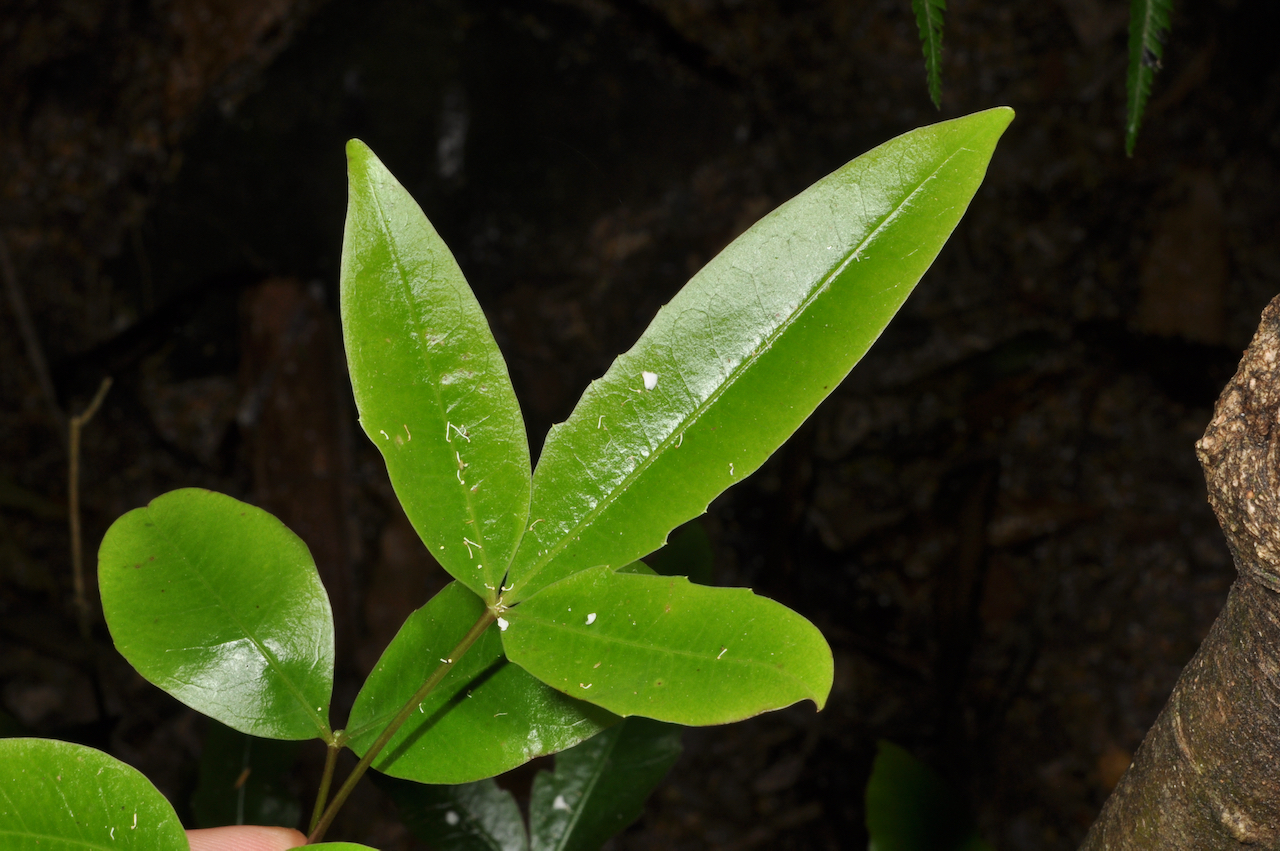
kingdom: Plantae
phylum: Tracheophyta
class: Magnoliopsida
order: Apiales
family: Araliaceae
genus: Raukaua
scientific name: Raukaua simplex
